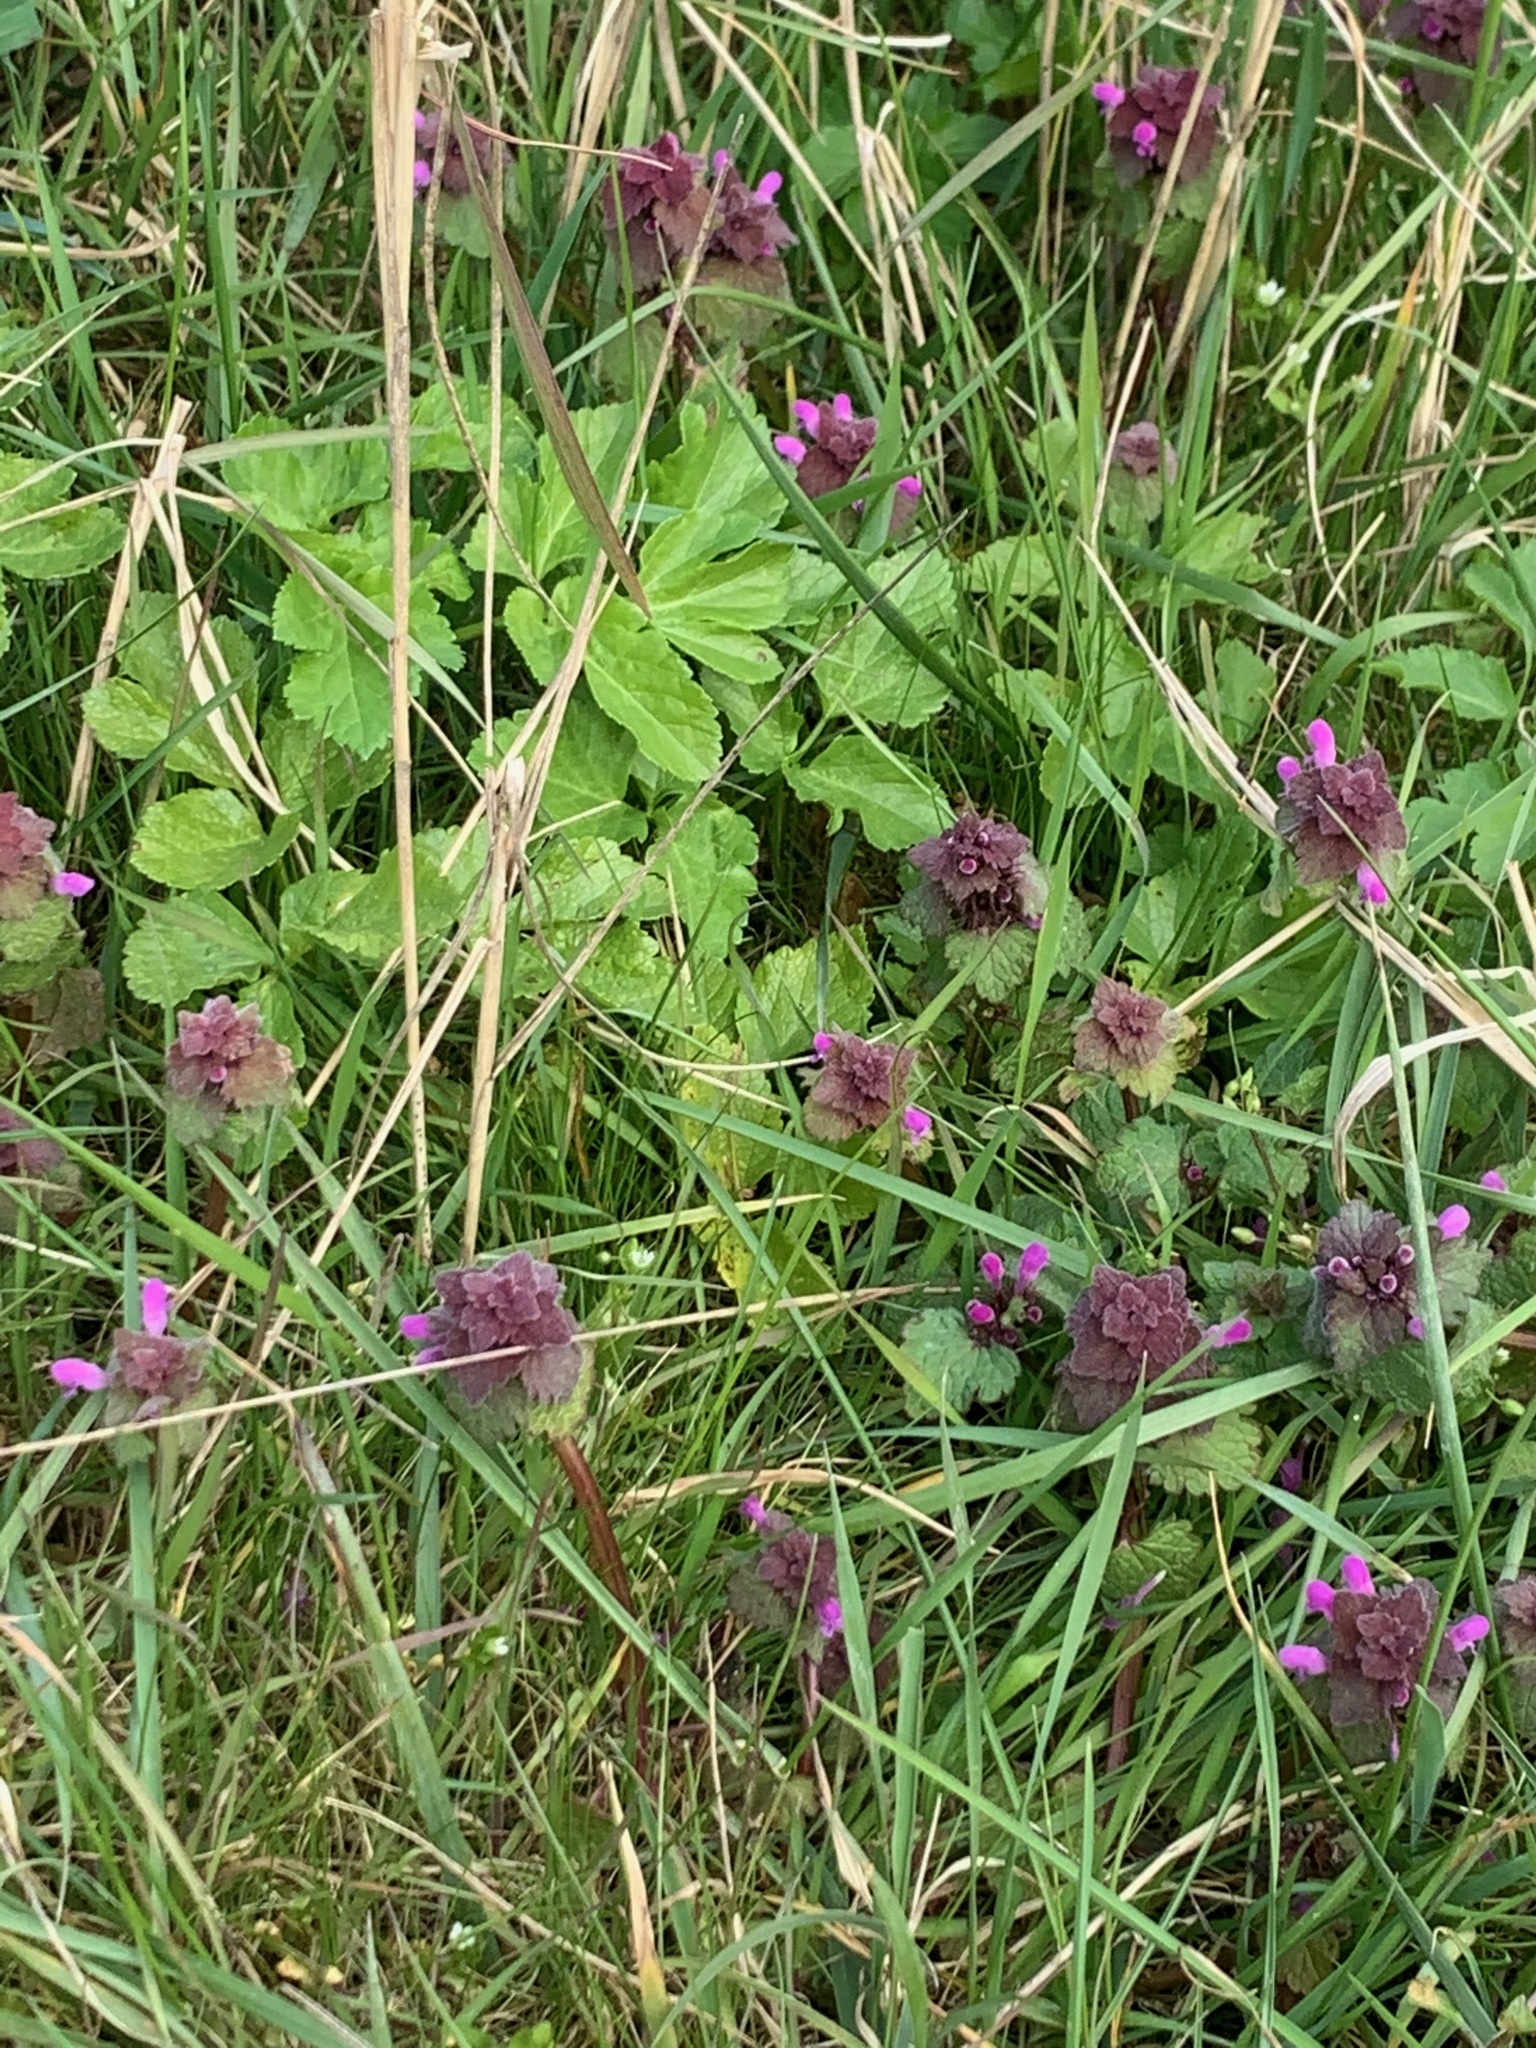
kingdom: Plantae
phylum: Tracheophyta
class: Magnoliopsida
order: Lamiales
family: Lamiaceae
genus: Lamium
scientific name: Lamium purpureum
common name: Red dead-nettle
